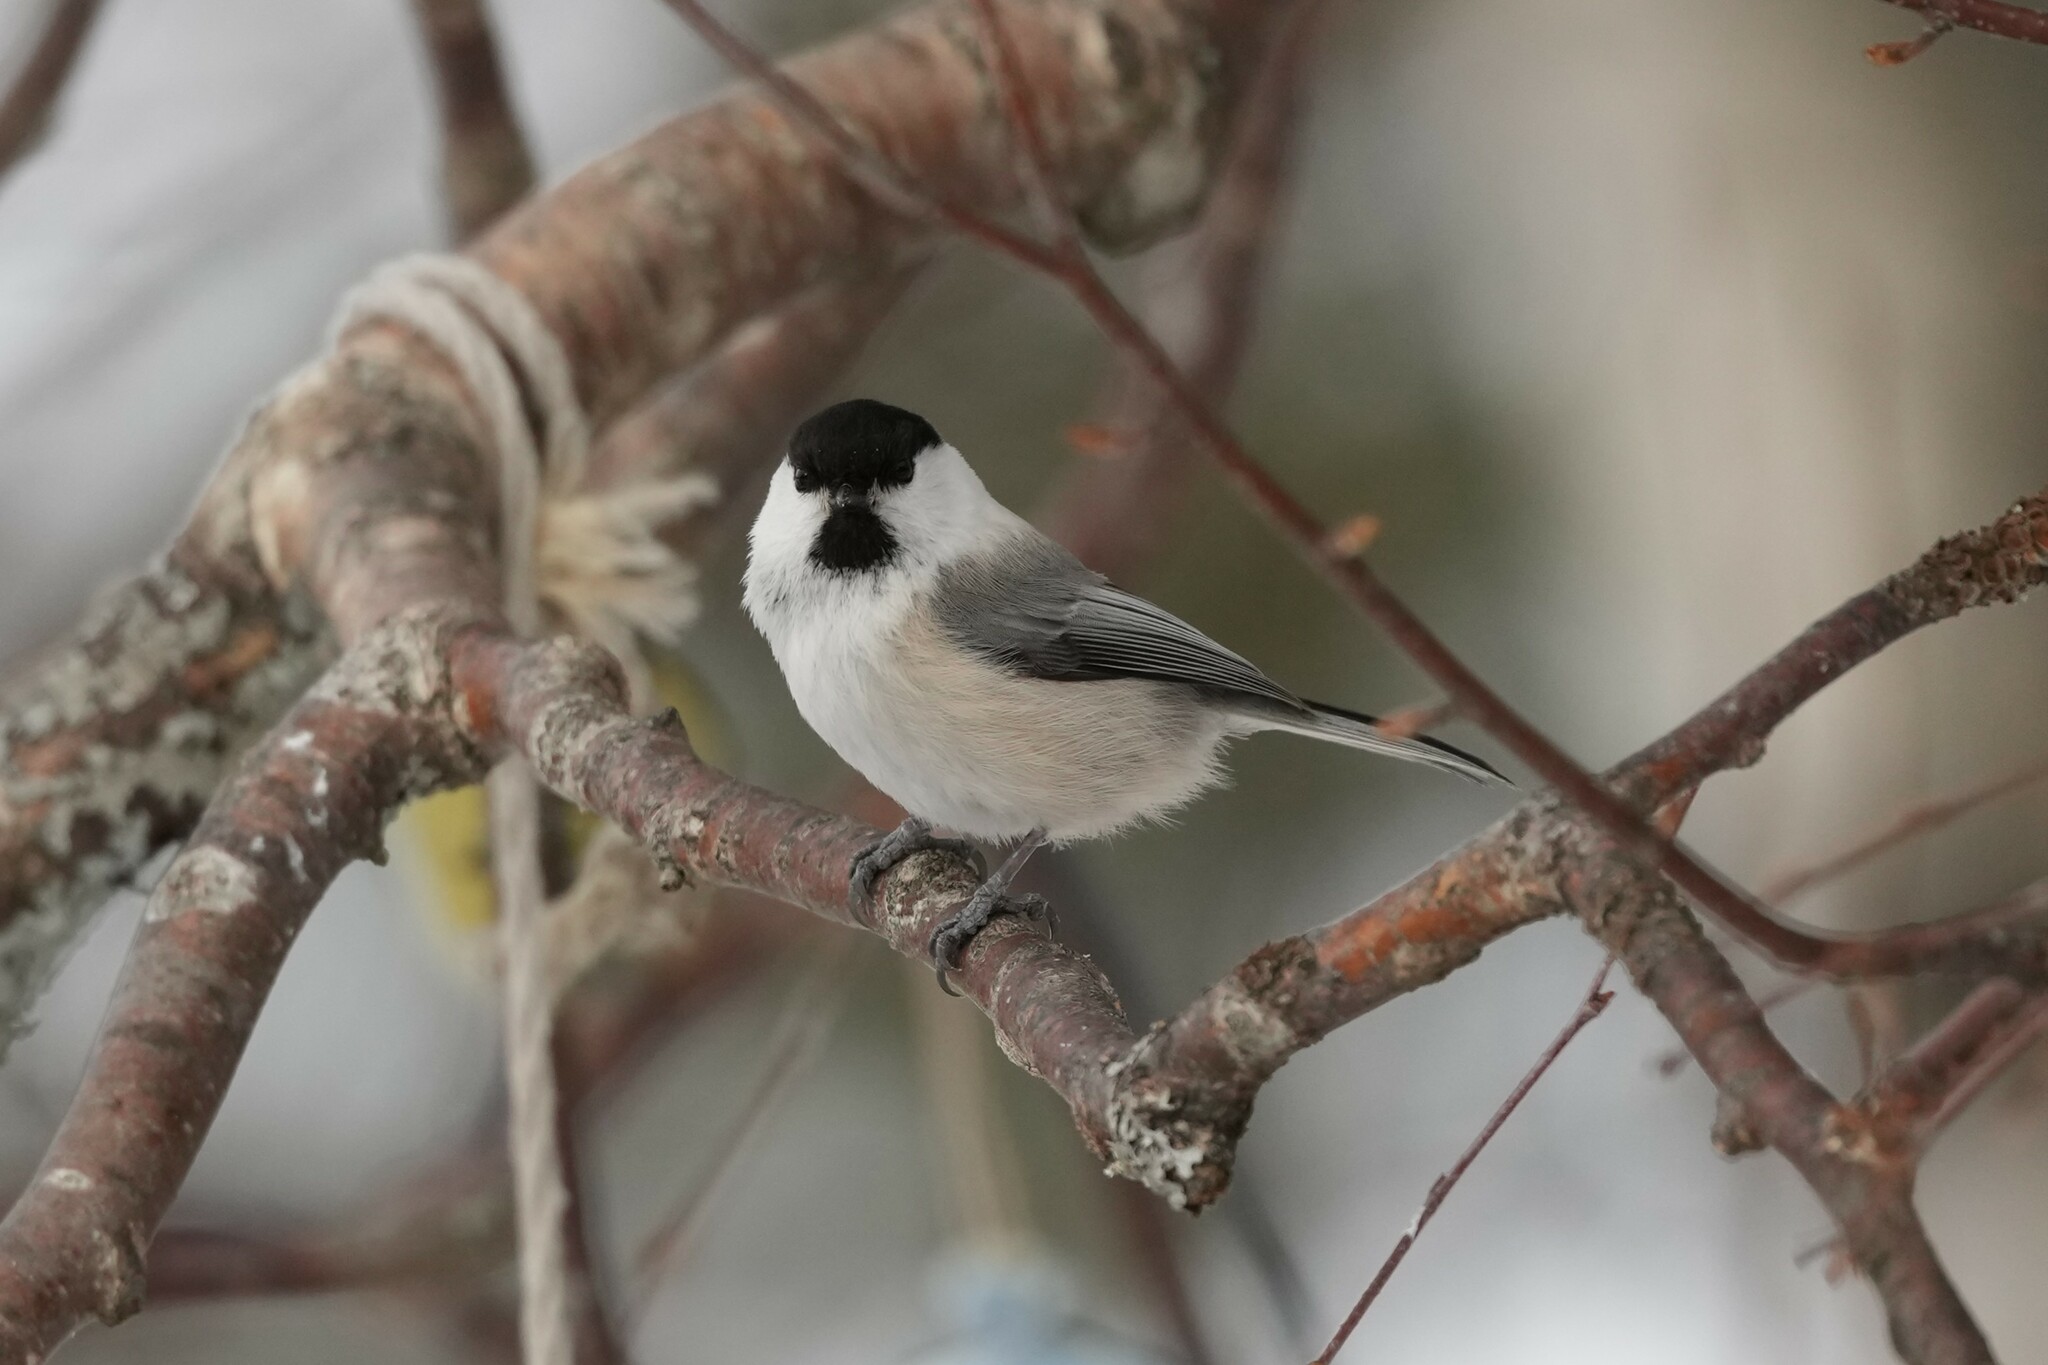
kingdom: Animalia
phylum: Chordata
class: Aves
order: Passeriformes
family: Paridae
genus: Poecile
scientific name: Poecile montanus
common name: Willow tit
